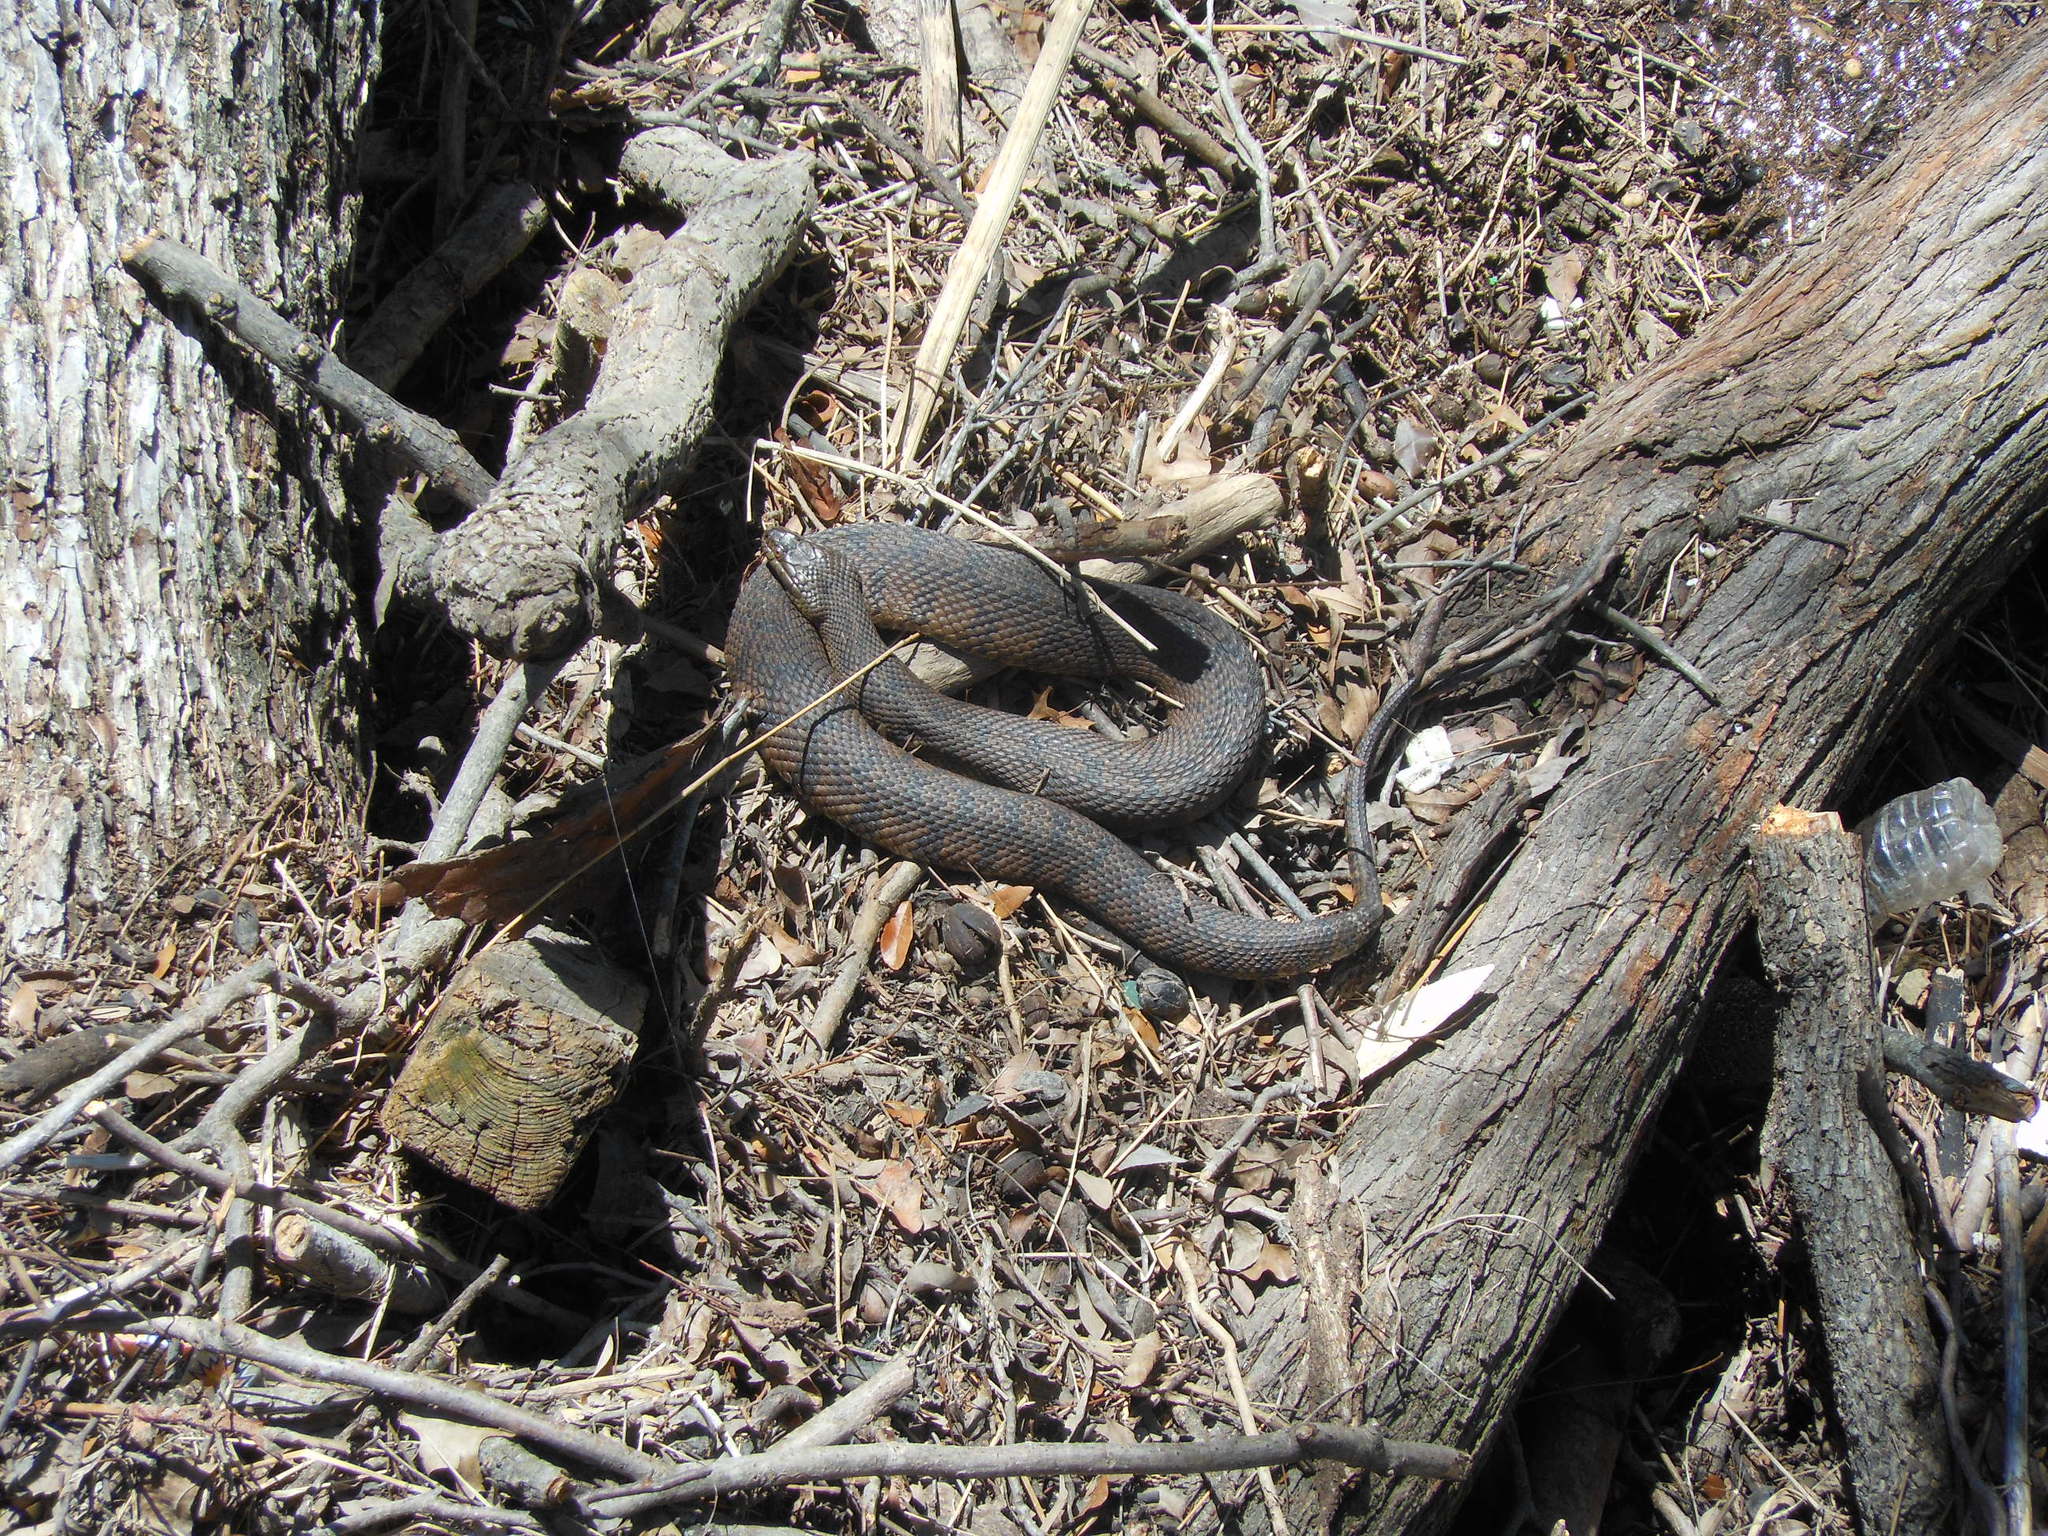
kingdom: Animalia
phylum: Chordata
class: Squamata
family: Colubridae
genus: Nerodia
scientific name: Nerodia rhombifer
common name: Diamondback water snake
